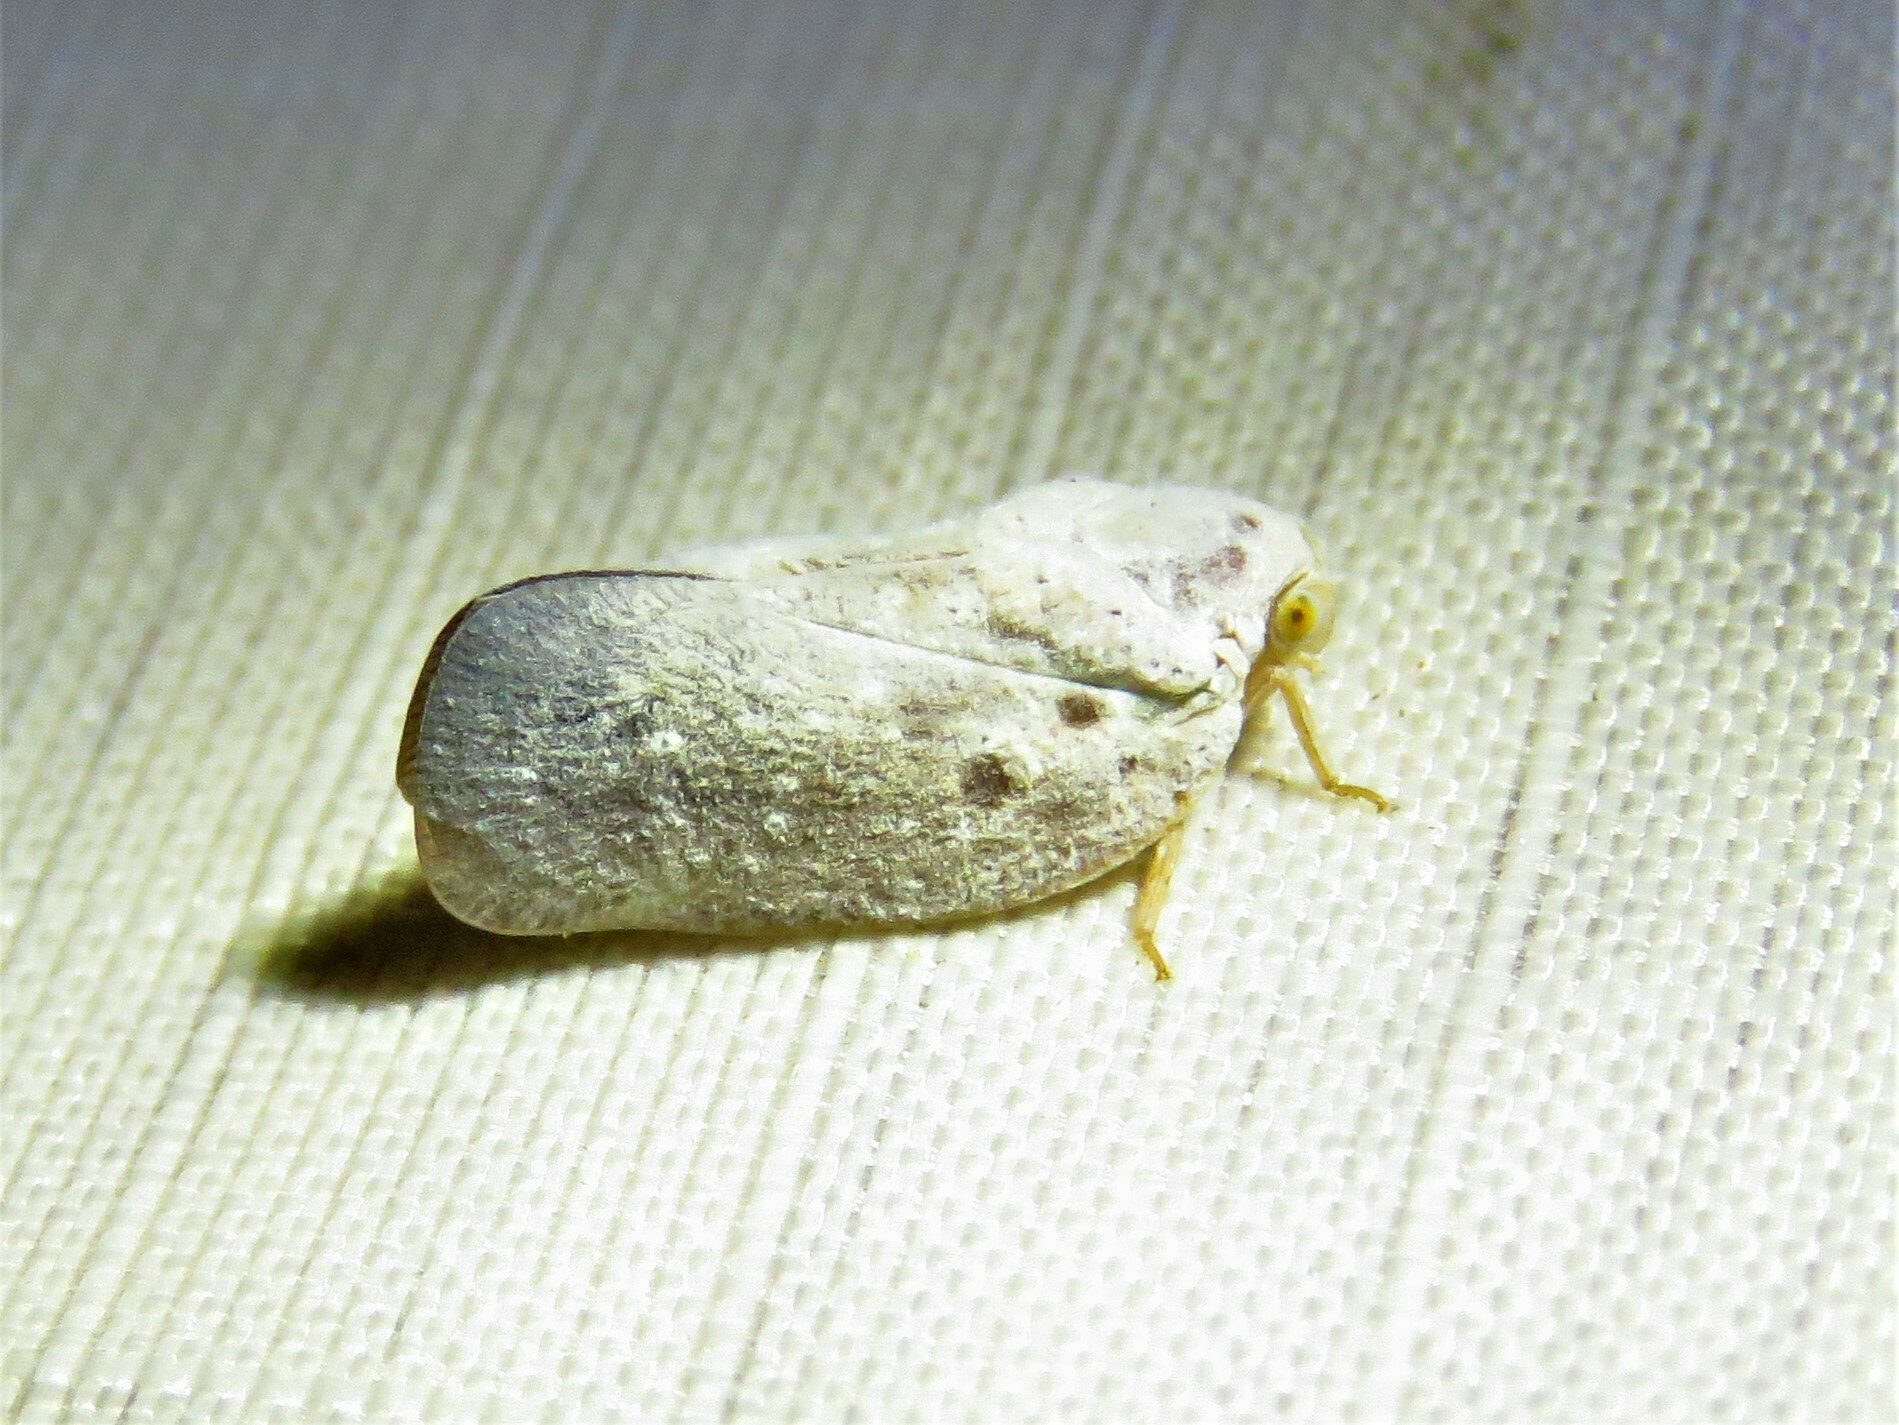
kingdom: Animalia
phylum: Arthropoda
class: Insecta
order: Hemiptera
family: Flatidae
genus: Metcalfa
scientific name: Metcalfa pruinosa
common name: Citrus flatid planthopper
